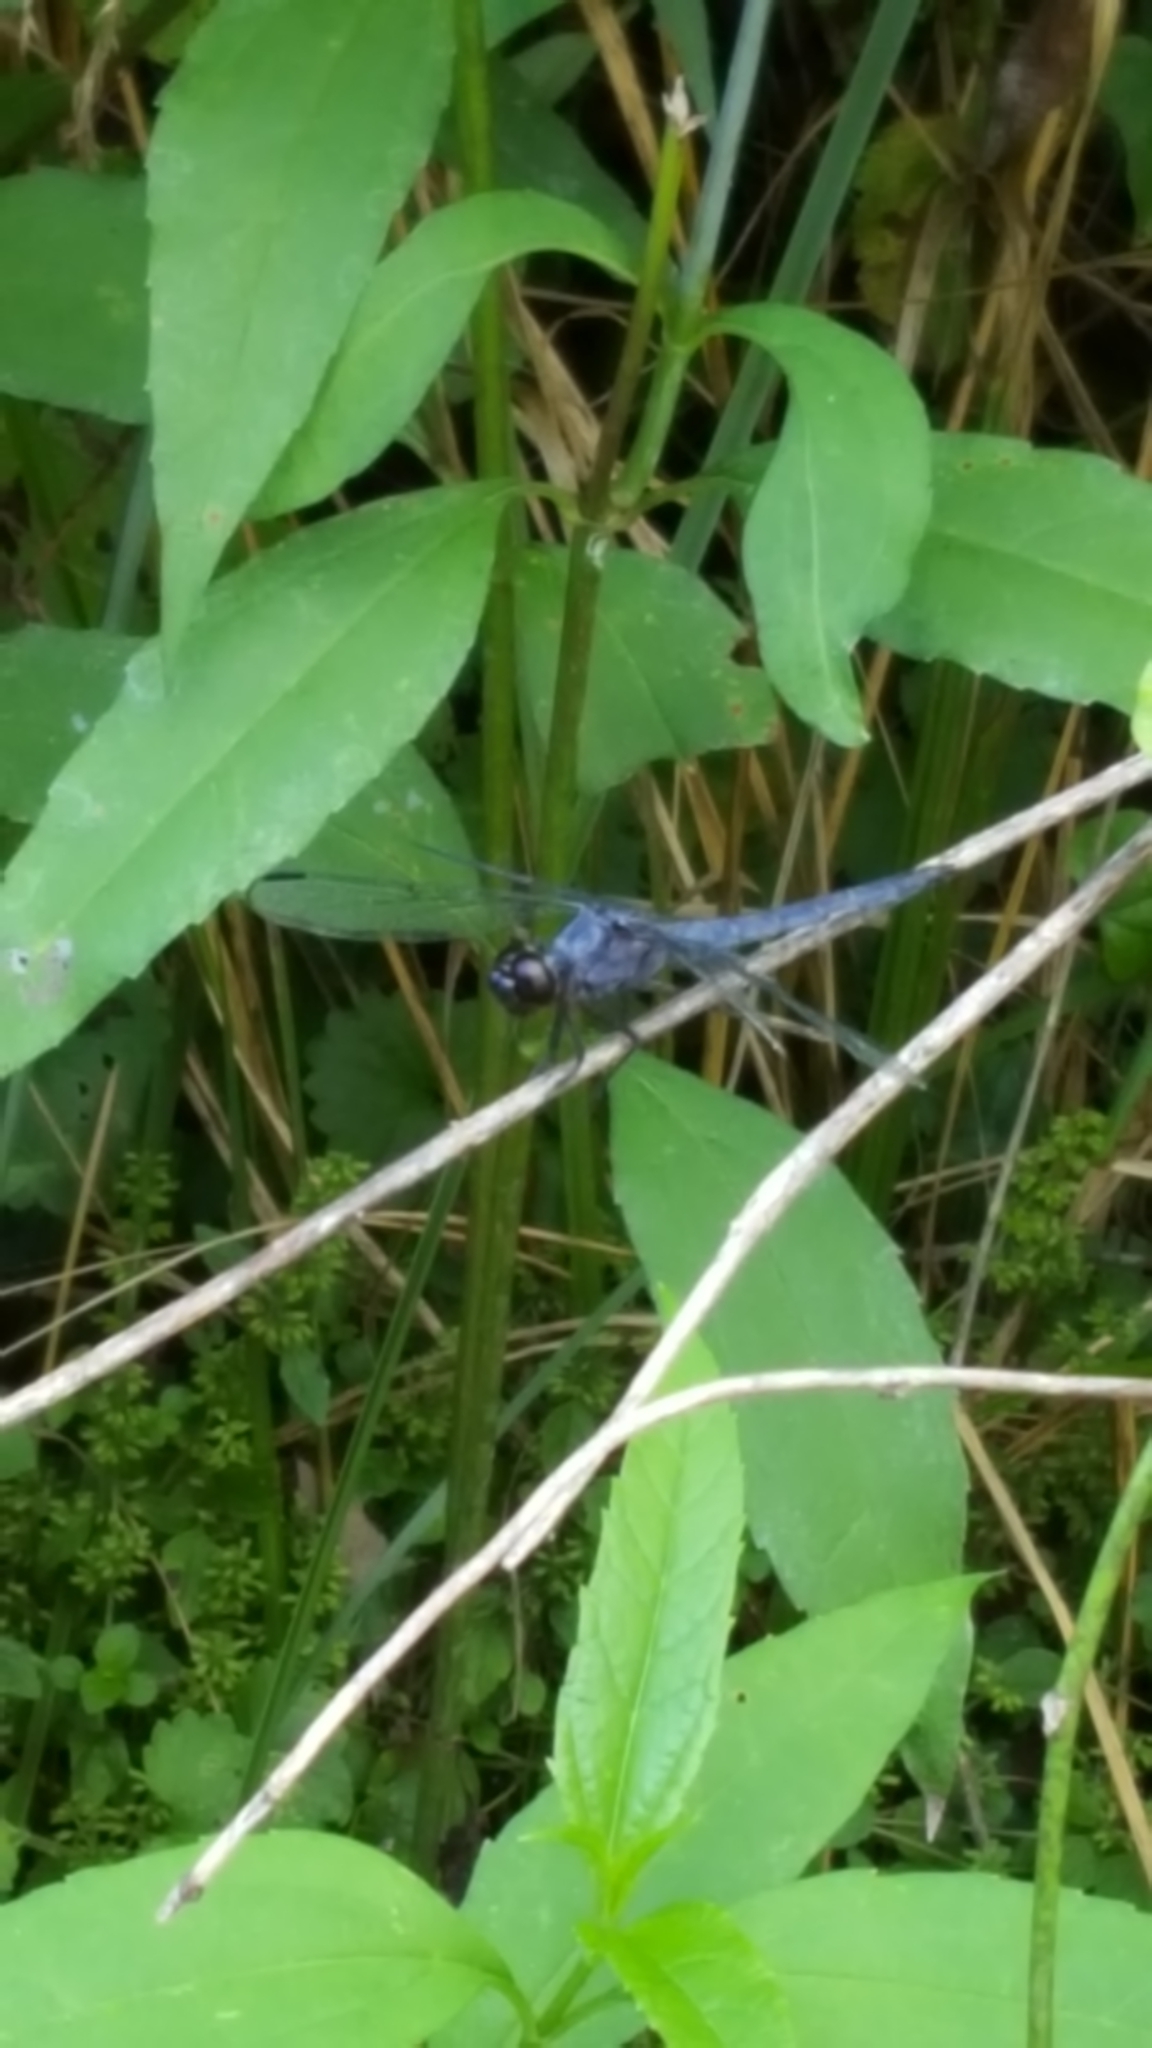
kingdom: Animalia
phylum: Arthropoda
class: Insecta
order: Odonata
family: Libellulidae
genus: Libellula
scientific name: Libellula incesta
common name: Slaty skimmer
